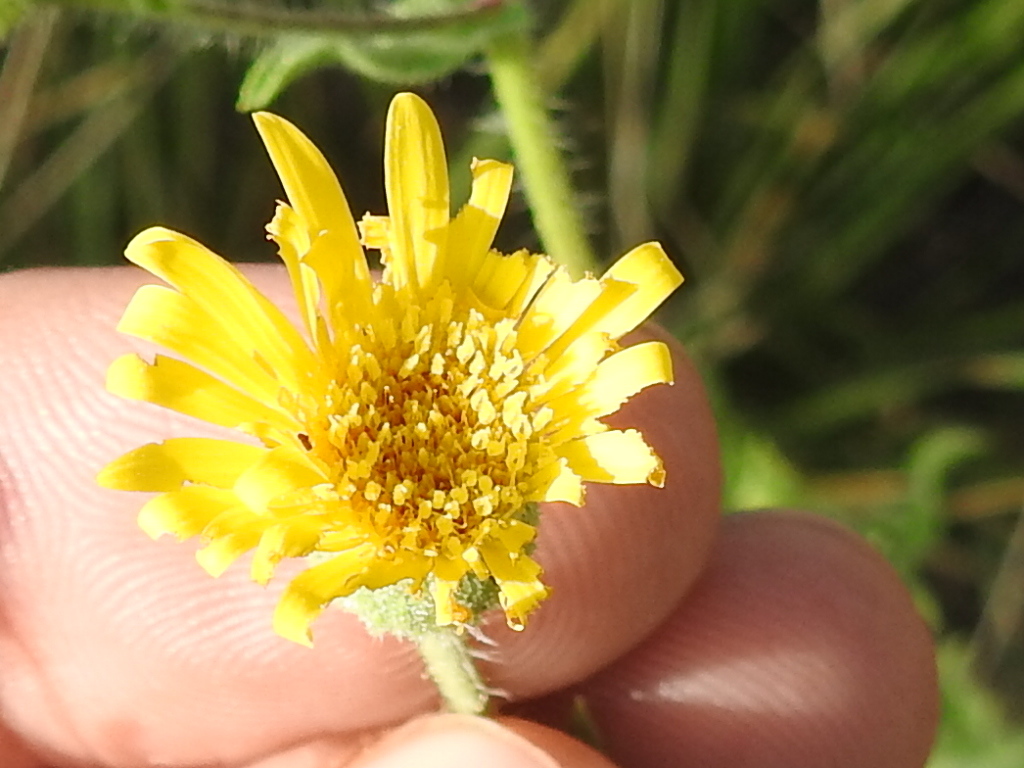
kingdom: Plantae
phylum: Tracheophyta
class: Magnoliopsida
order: Asterales
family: Asteraceae
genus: Heterotheca
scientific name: Heterotheca subaxillaris
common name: Camphorweed
